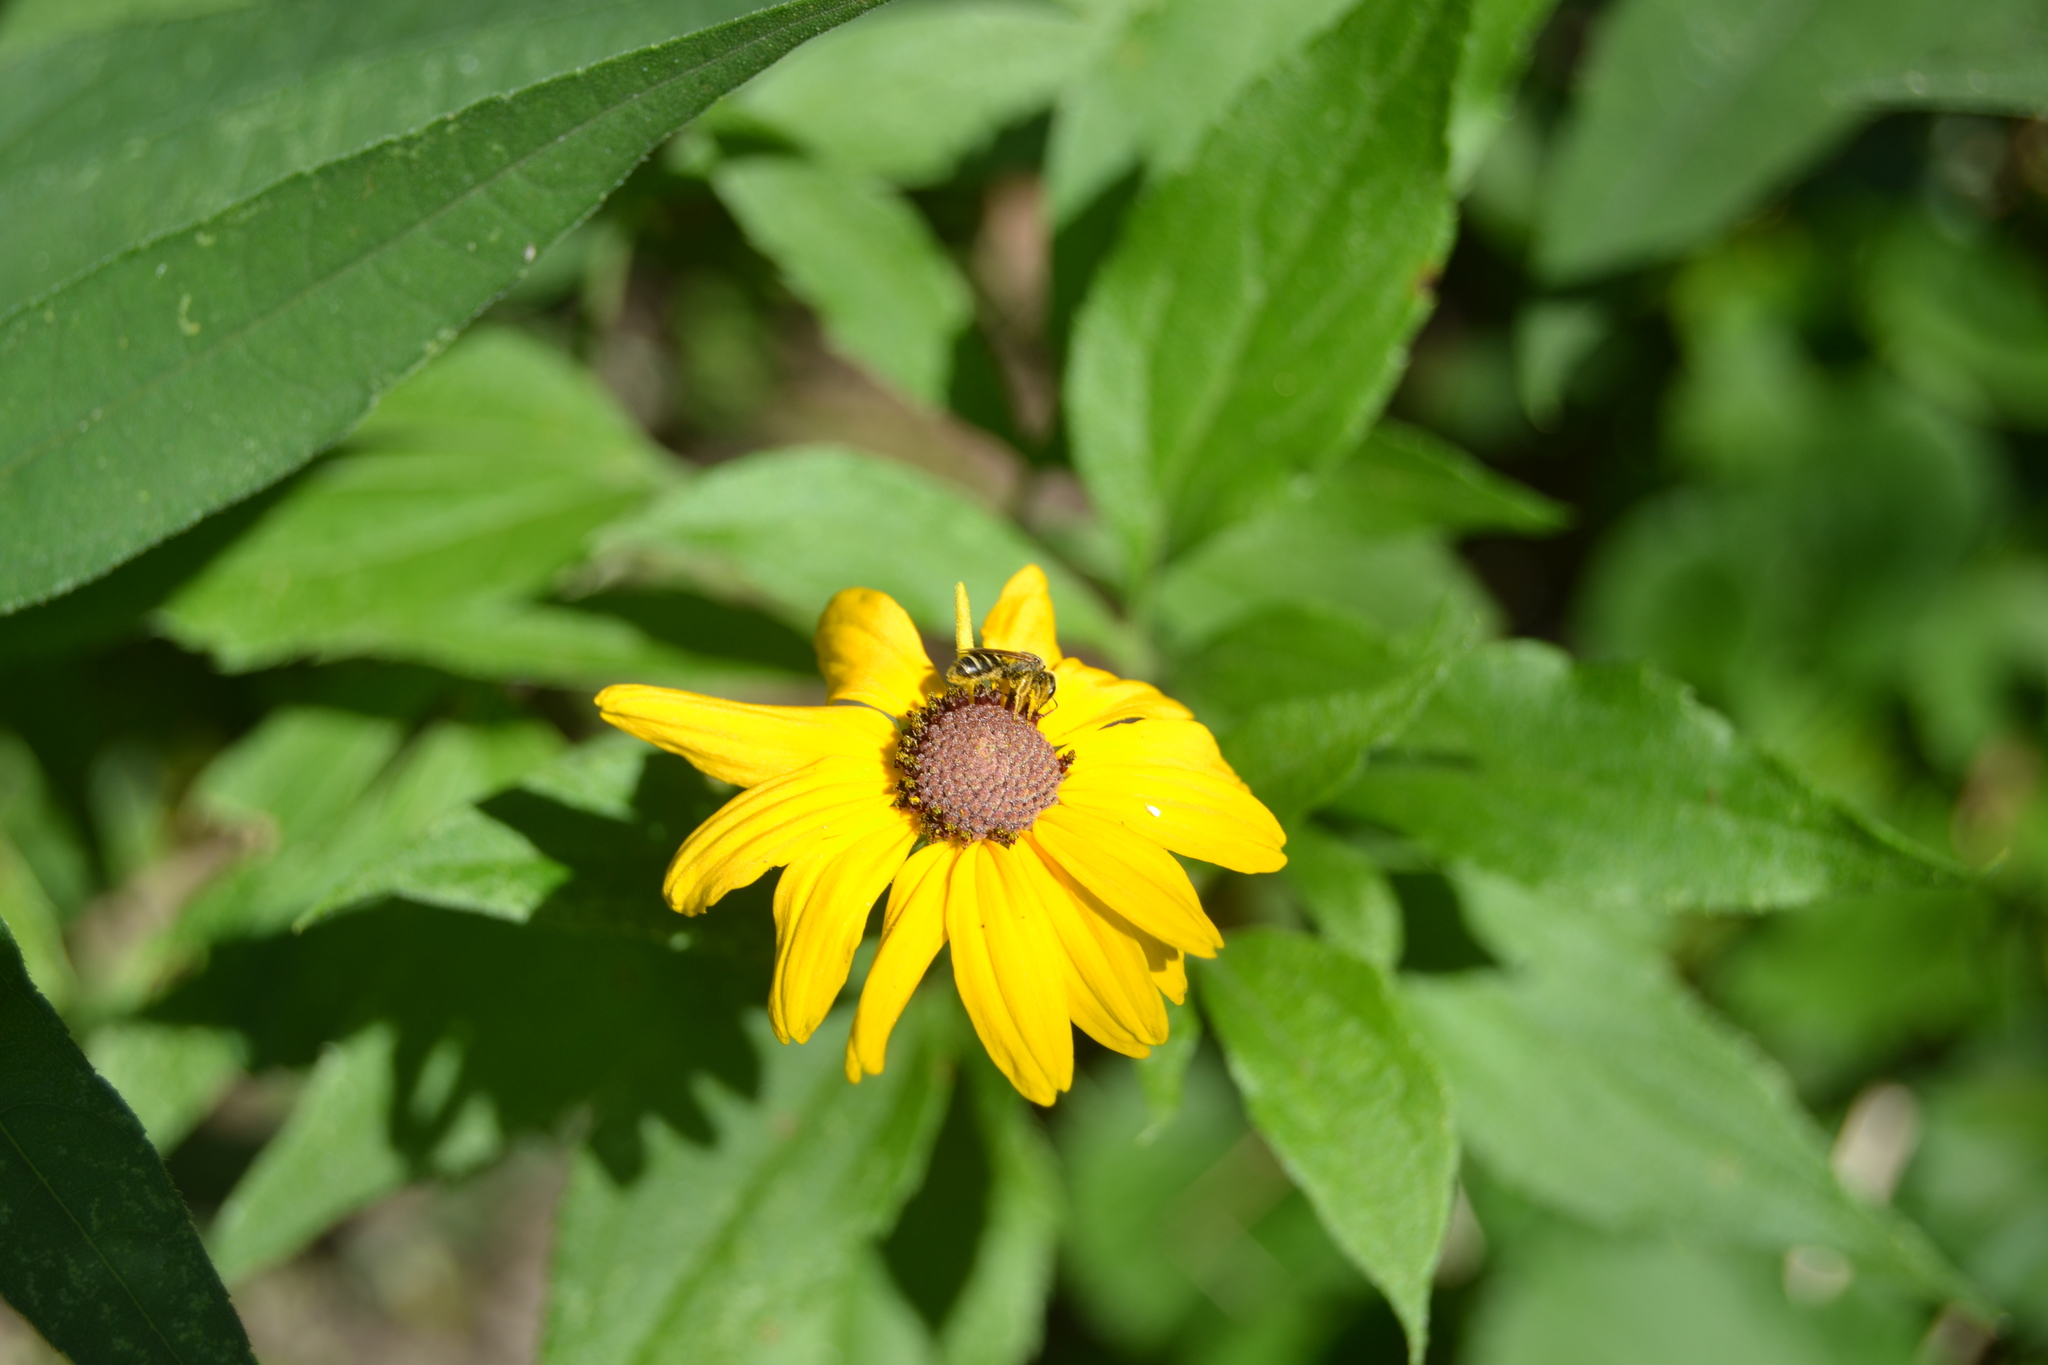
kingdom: Animalia
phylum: Arthropoda
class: Insecta
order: Hymenoptera
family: Halictidae
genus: Halictus
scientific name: Halictus ligatus
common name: Ligated furrow bee
